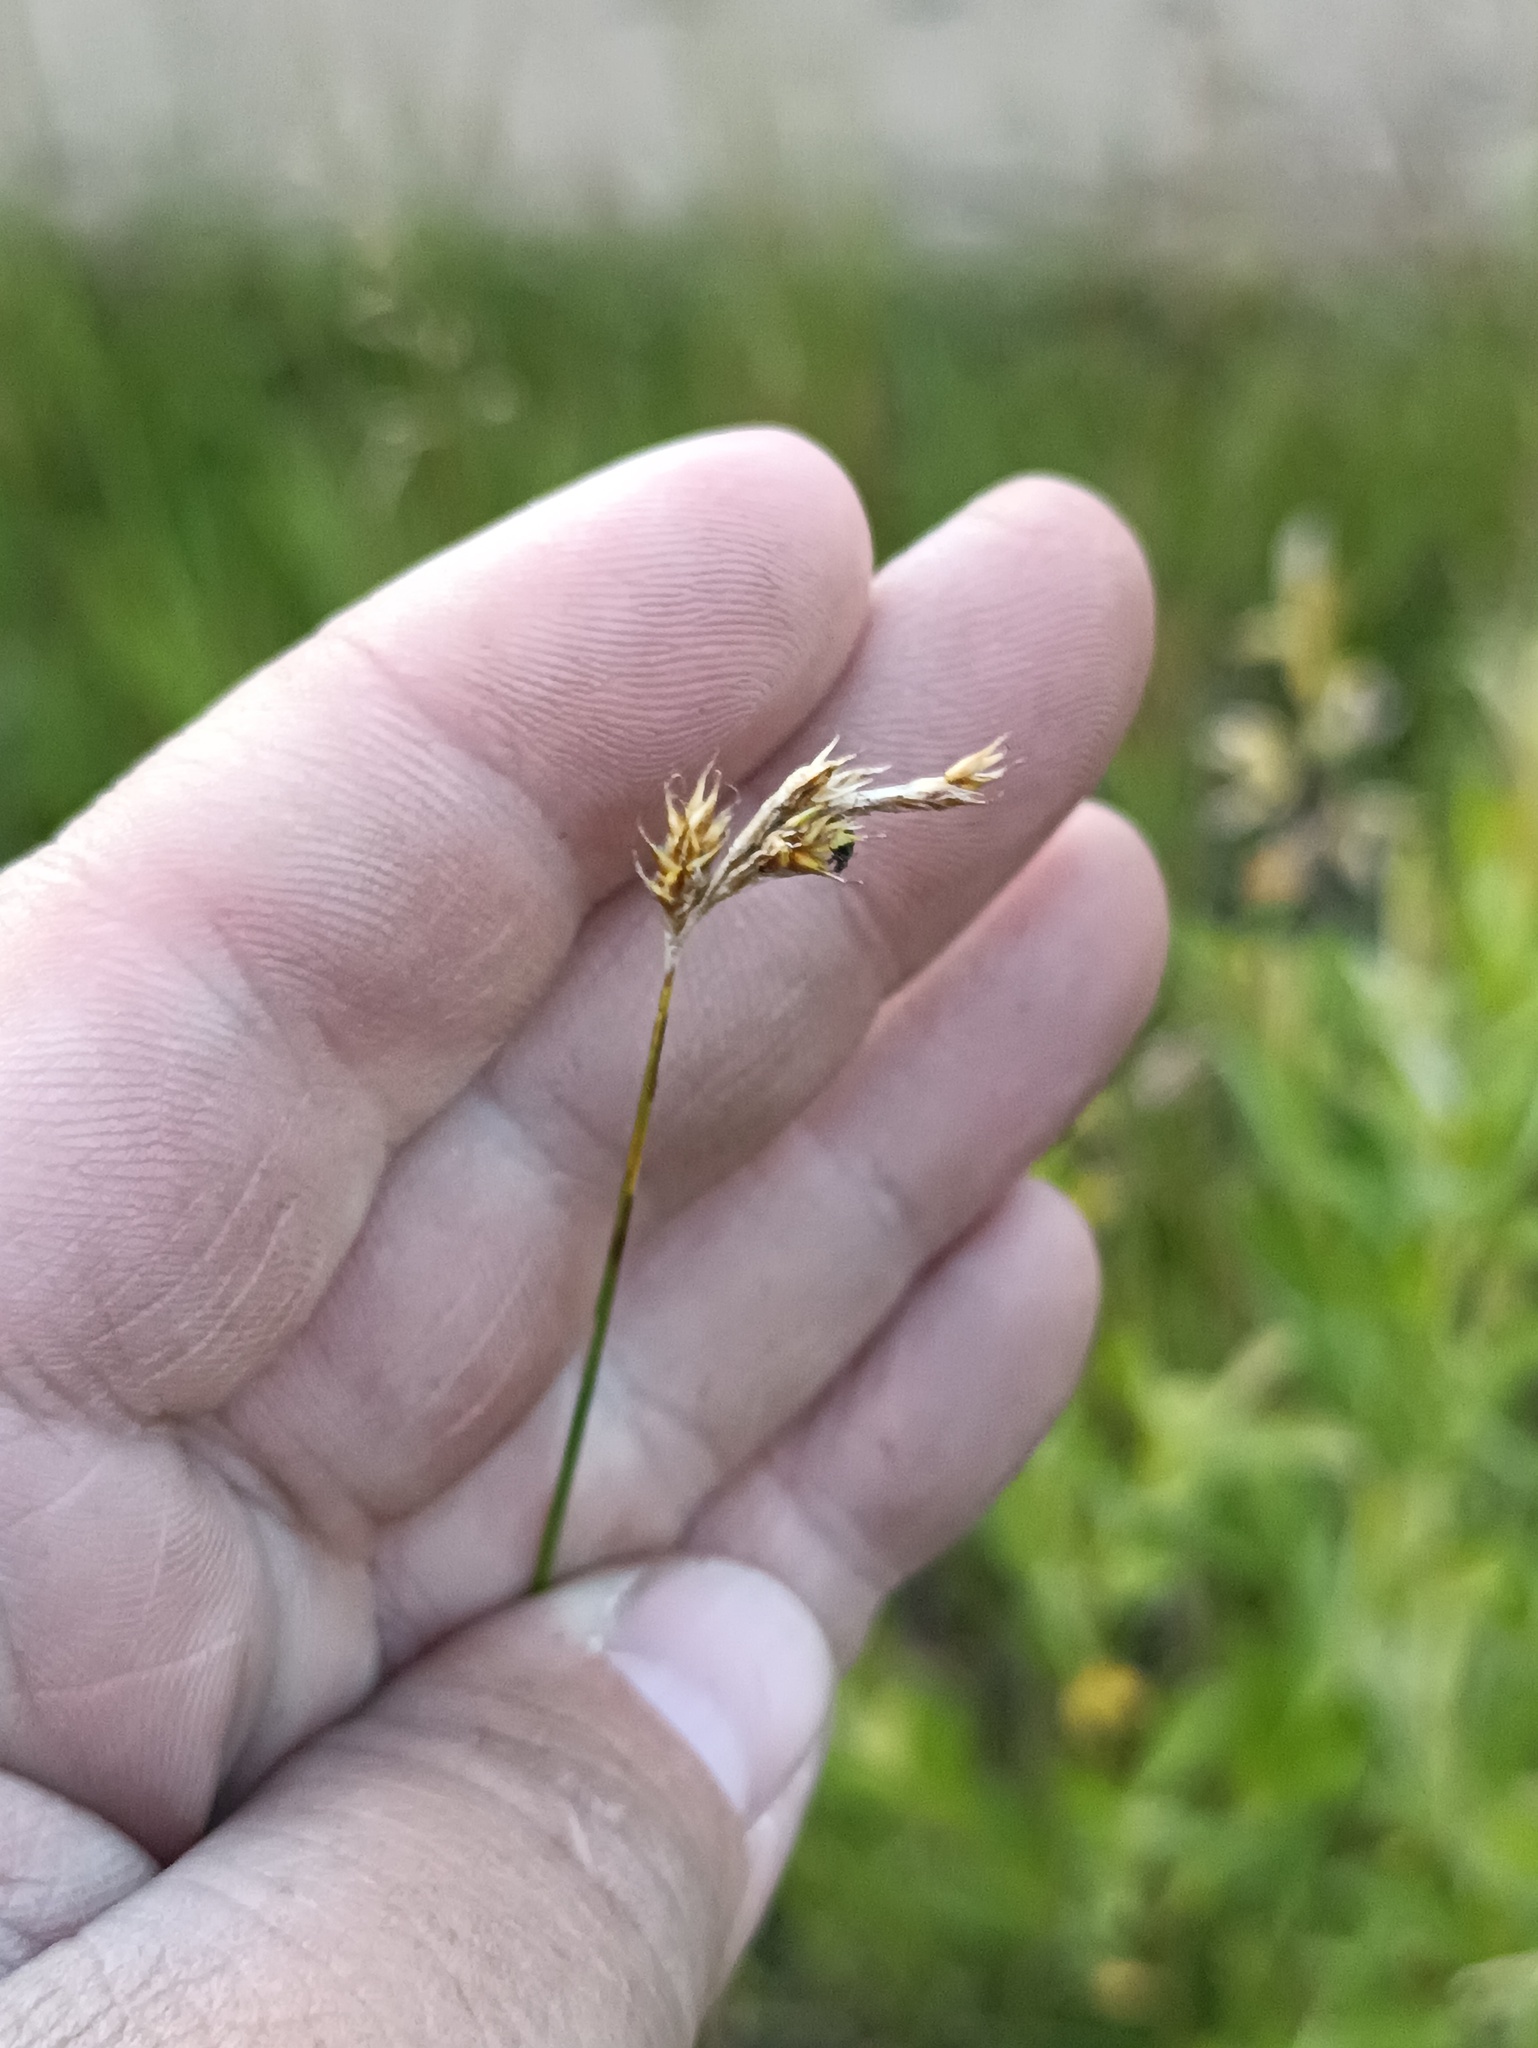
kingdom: Plantae
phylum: Tracheophyta
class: Liliopsida
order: Poales
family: Cyperaceae
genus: Carex
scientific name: Carex praecox
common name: Early sedge
